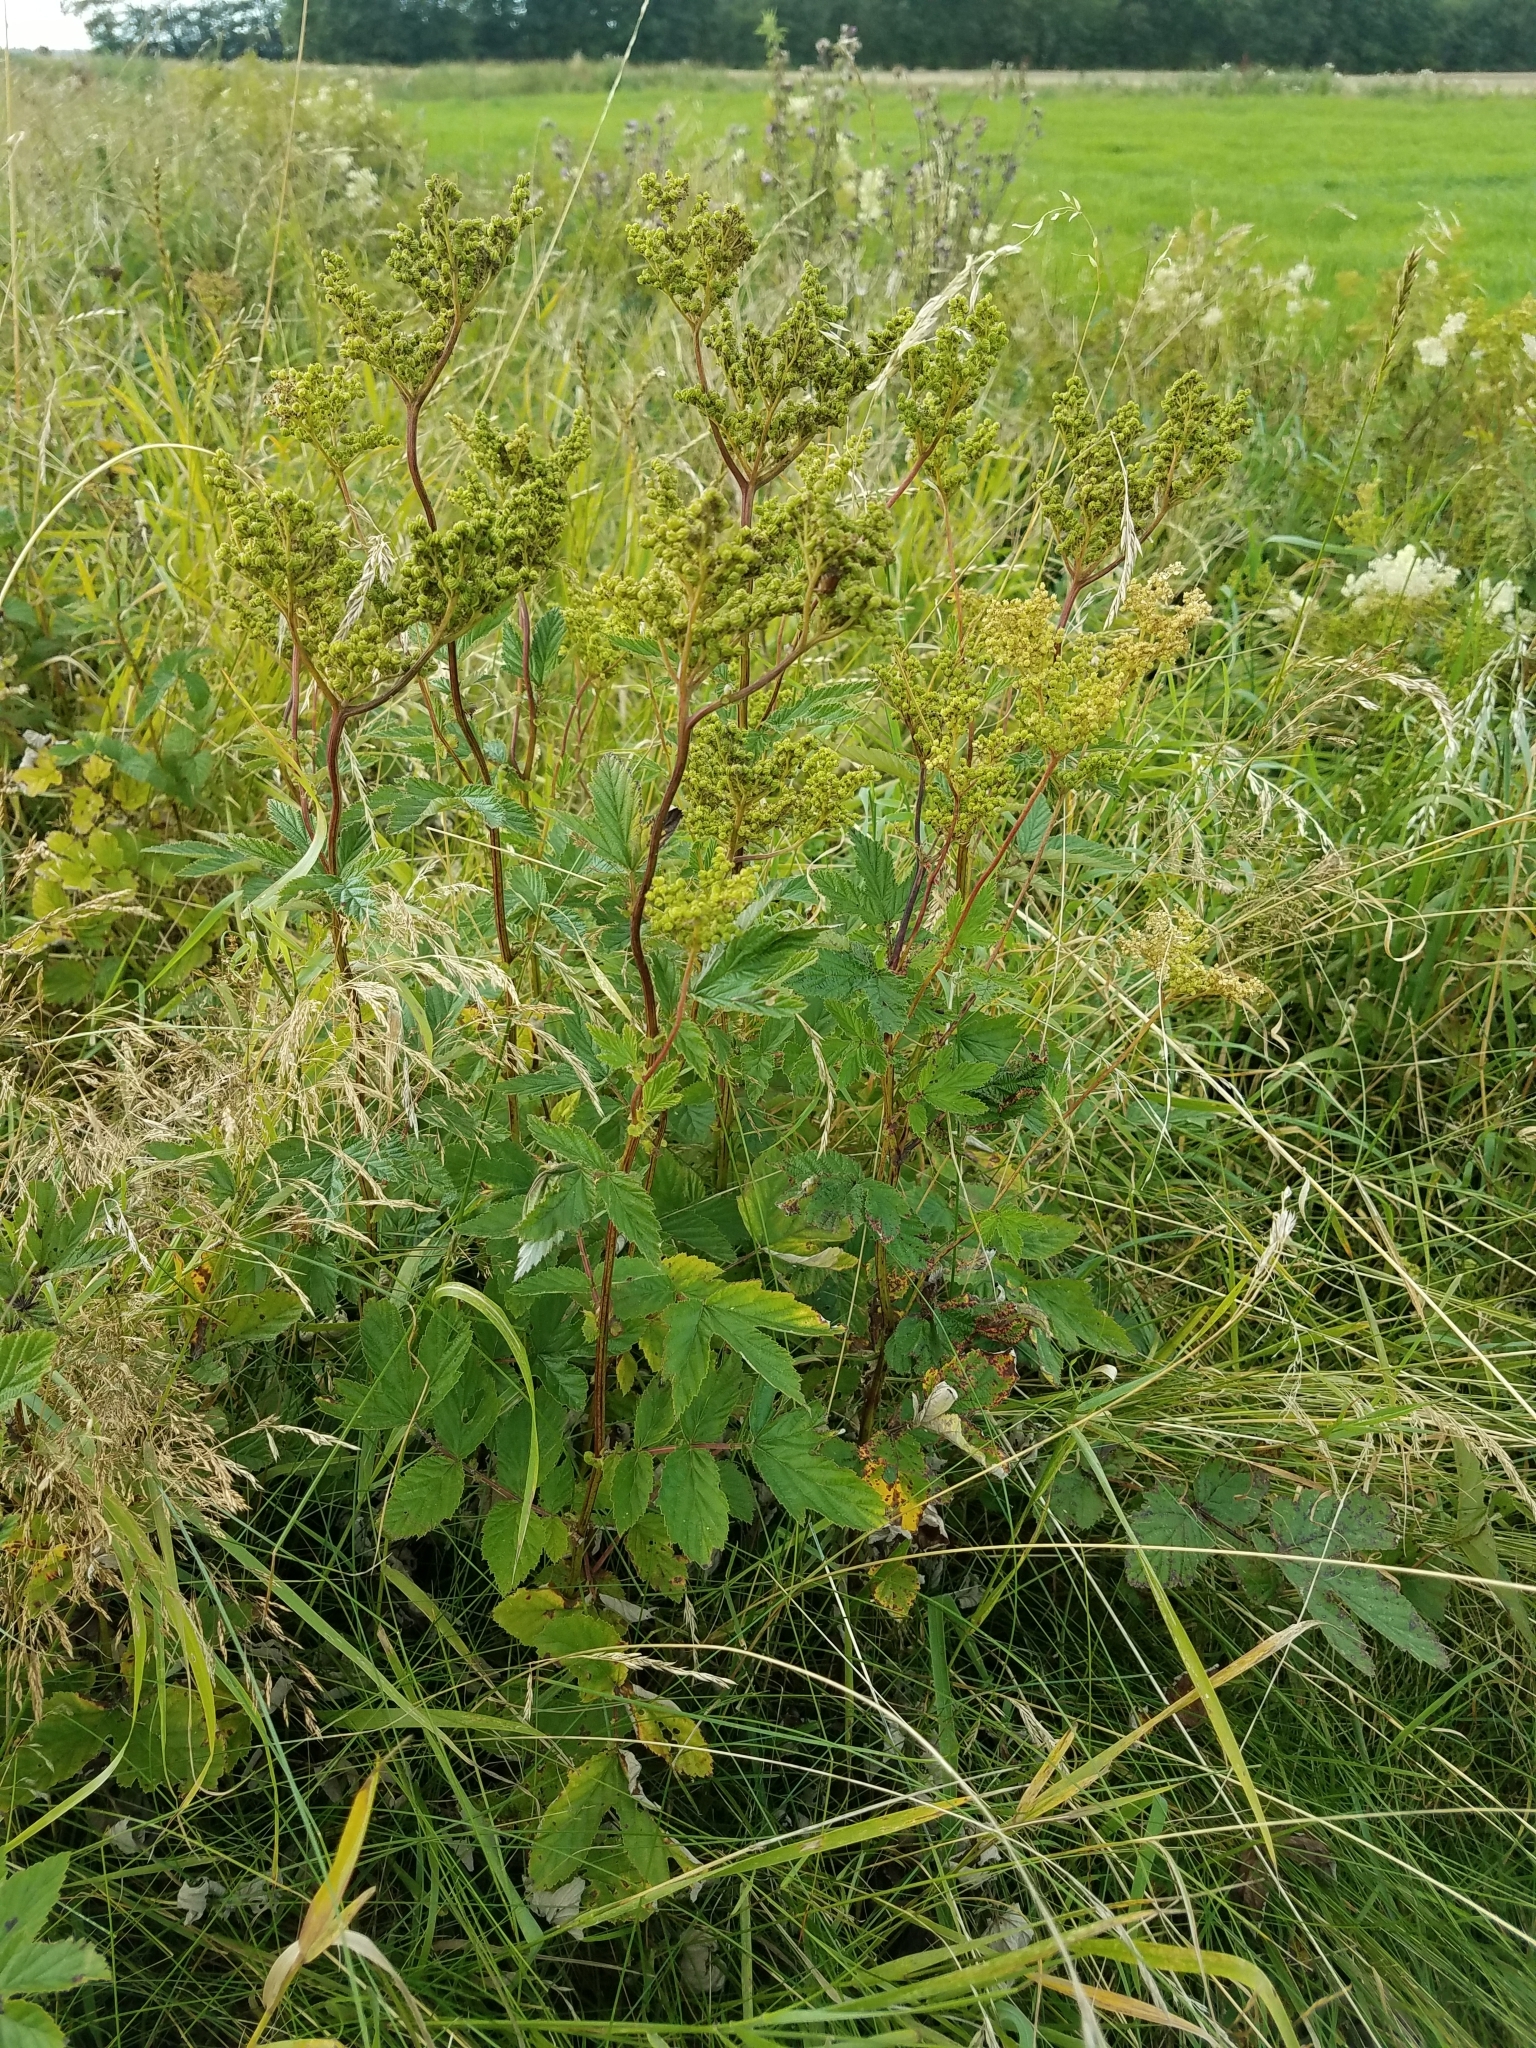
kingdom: Plantae
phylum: Tracheophyta
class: Magnoliopsida
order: Rosales
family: Rosaceae
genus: Filipendula
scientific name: Filipendula ulmaria
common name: Meadowsweet
